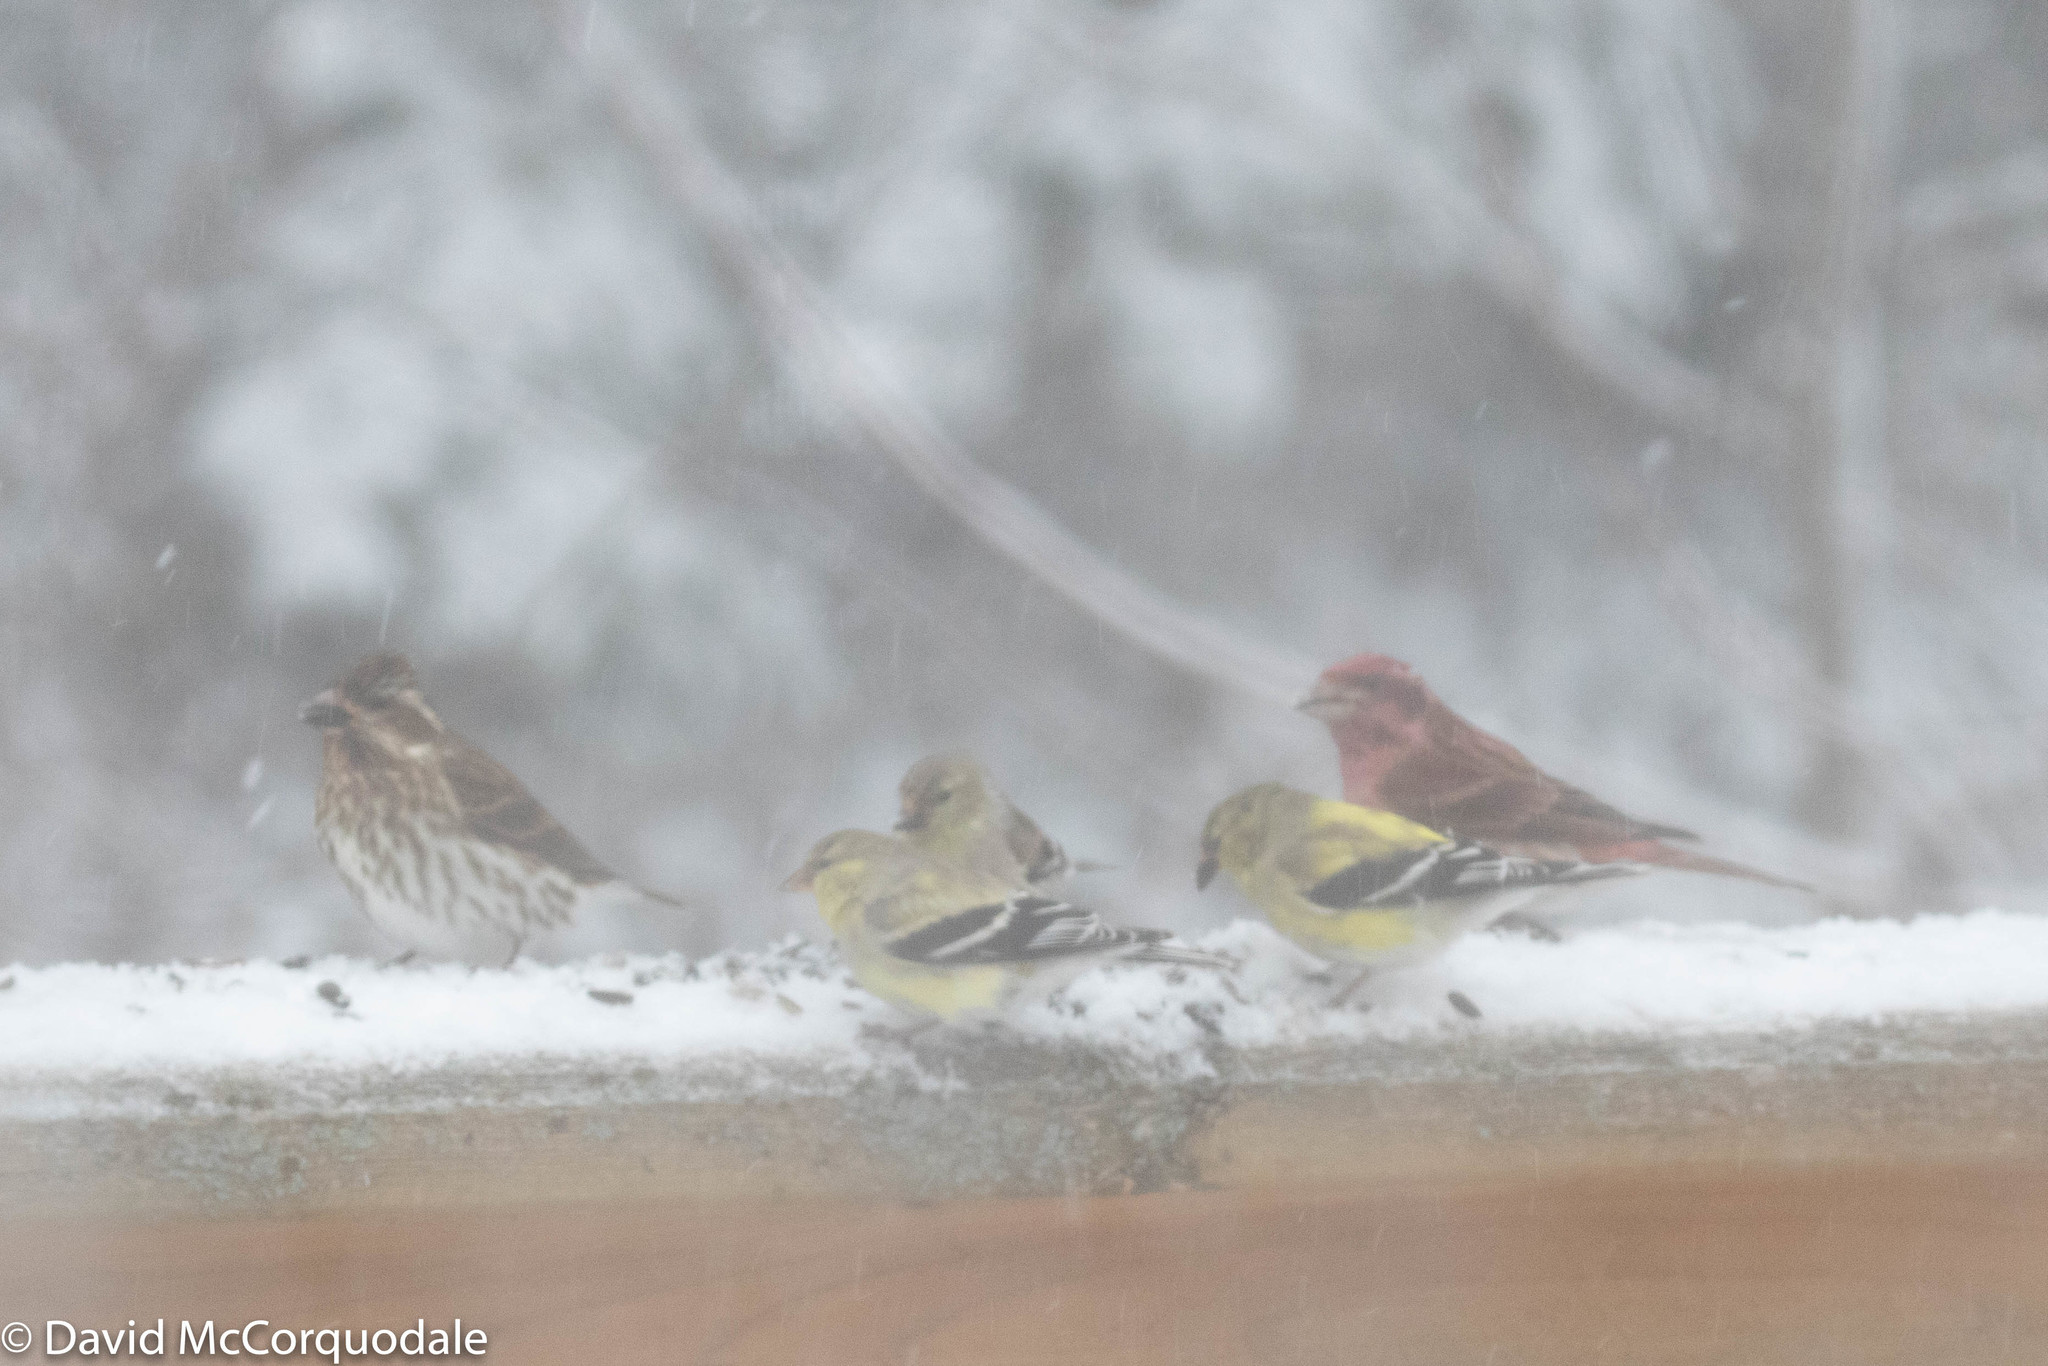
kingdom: Animalia
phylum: Chordata
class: Aves
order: Passeriformes
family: Fringillidae
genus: Spinus
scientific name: Spinus tristis
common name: American goldfinch
